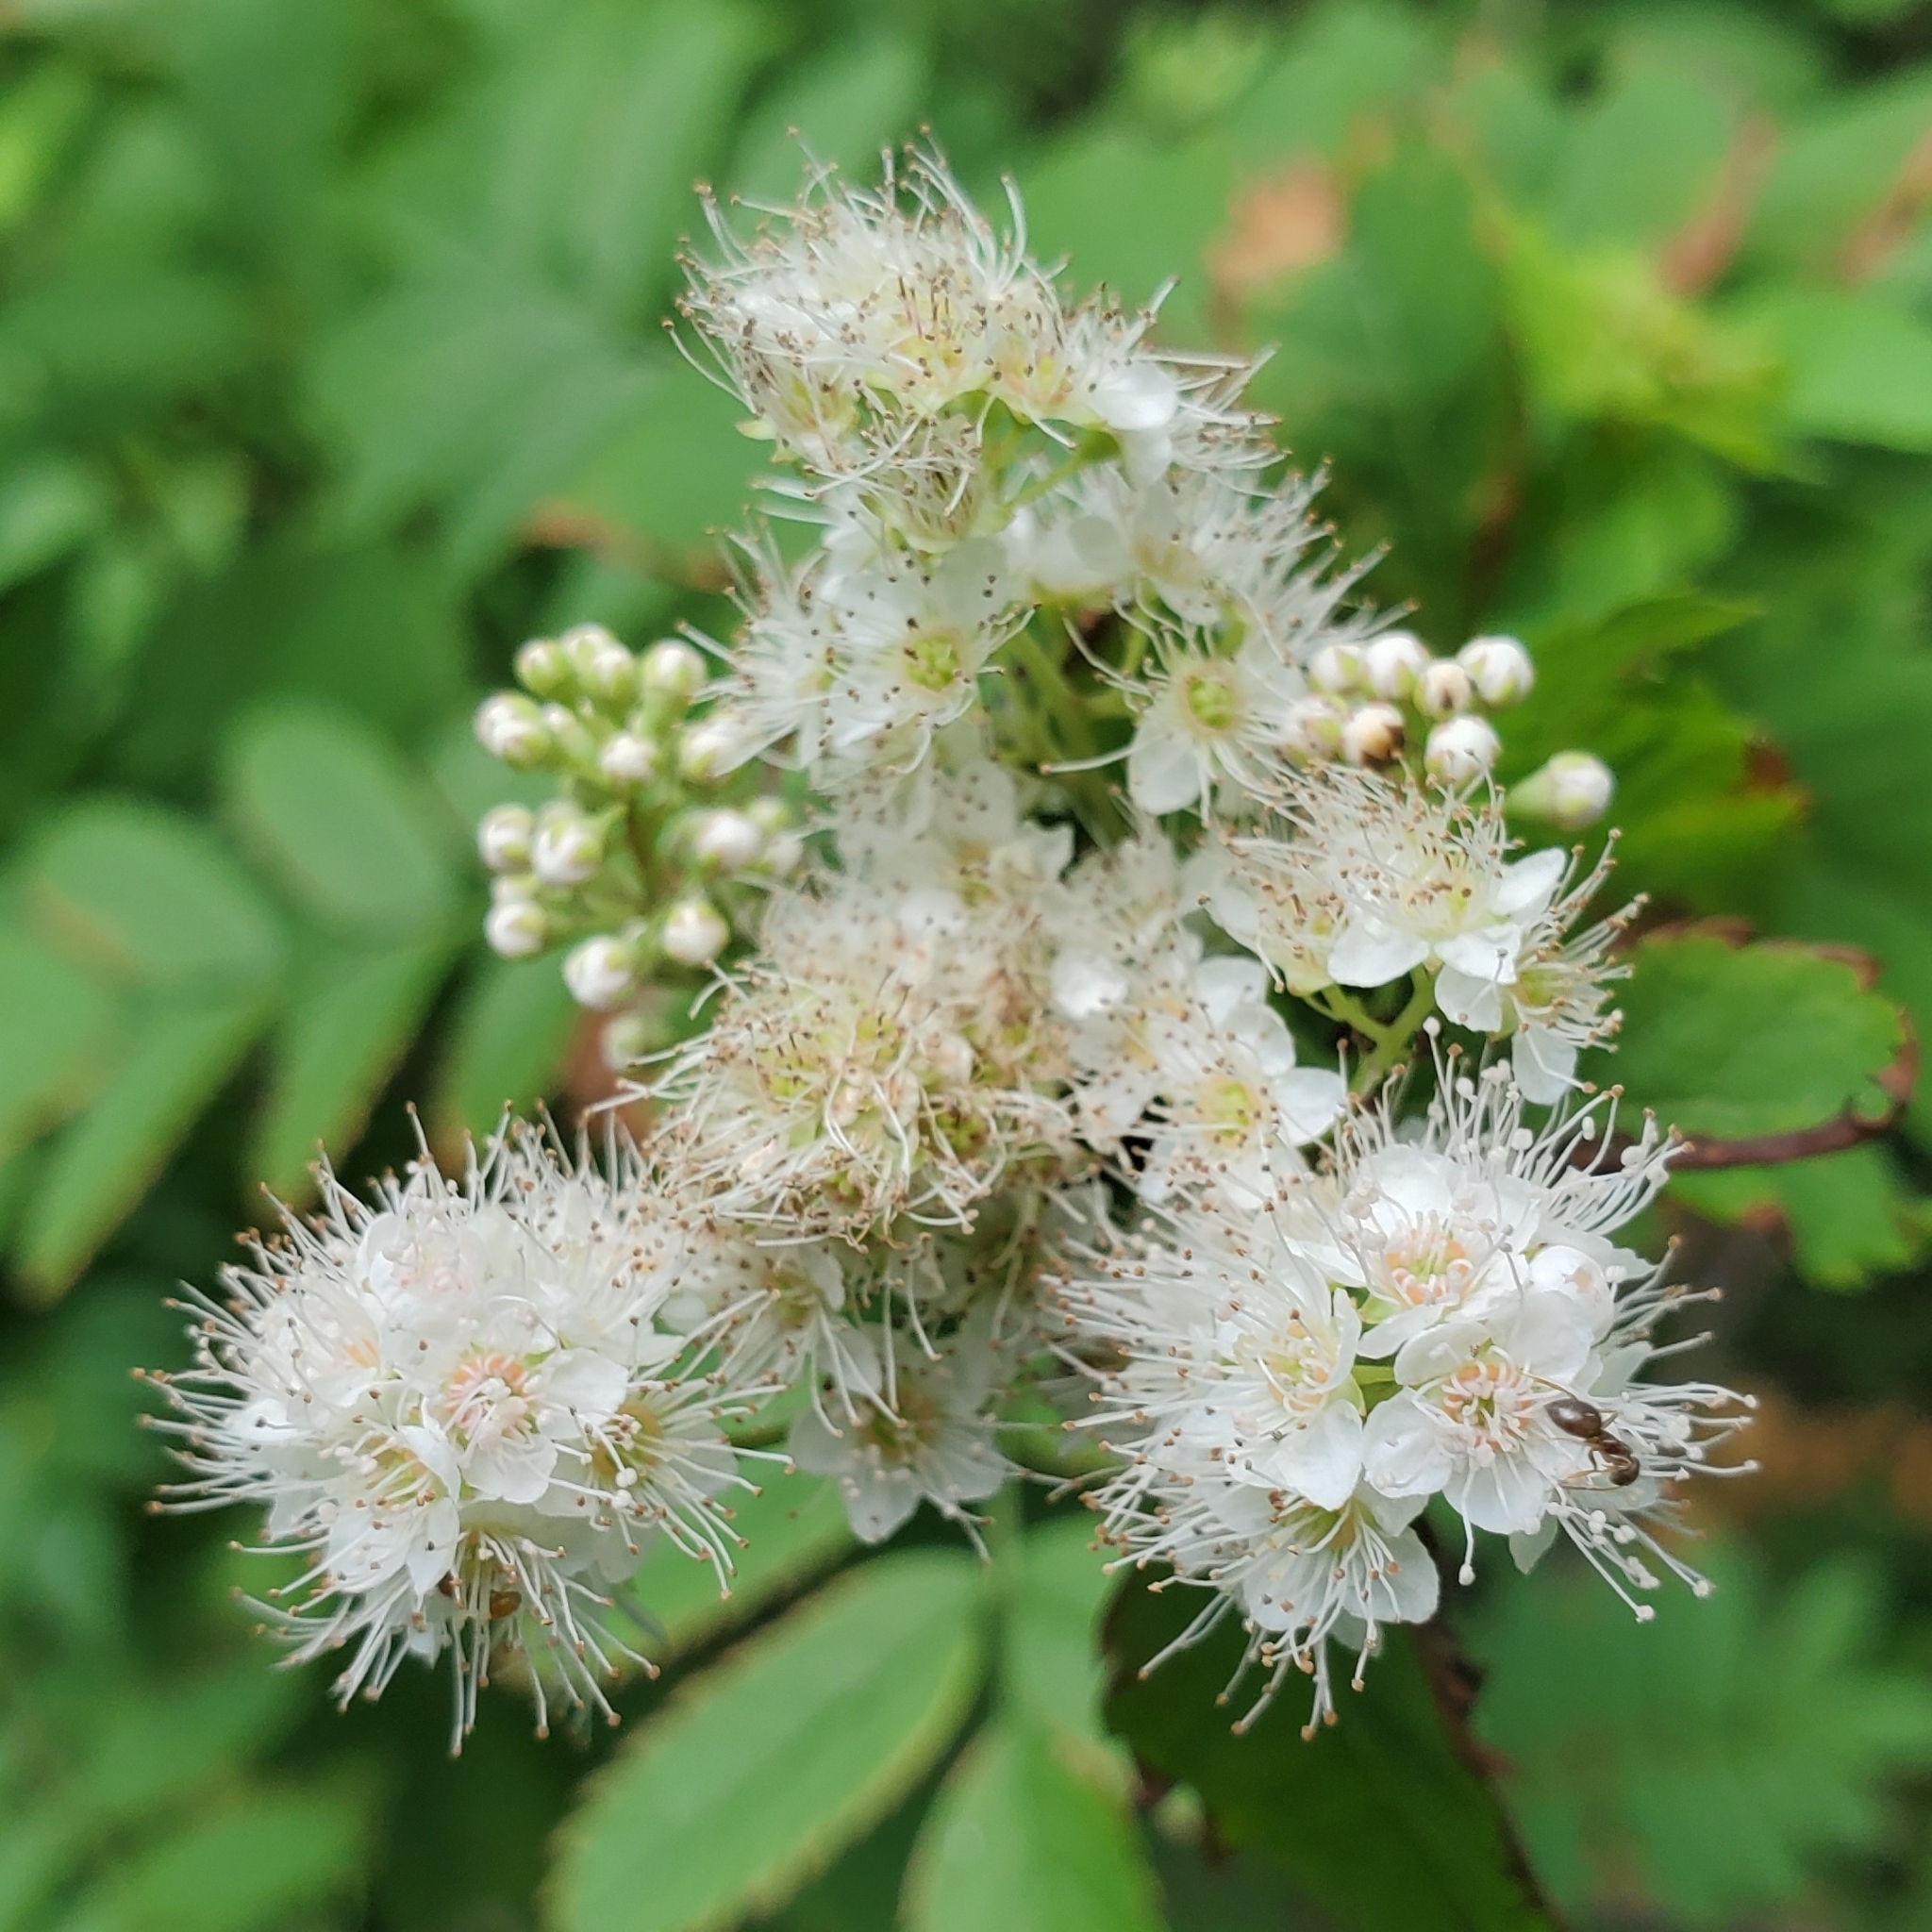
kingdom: Plantae
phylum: Tracheophyta
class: Magnoliopsida
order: Rosales
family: Rosaceae
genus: Spiraea
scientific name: Spiraea alba
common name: Pale bridewort
